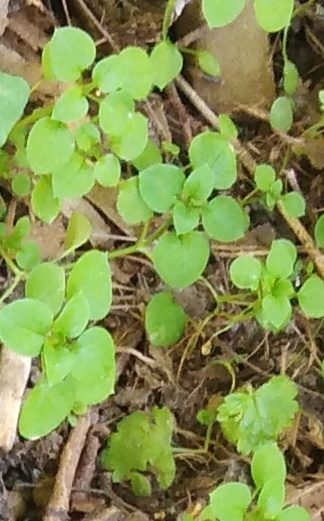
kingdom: Plantae
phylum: Tracheophyta
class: Magnoliopsida
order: Caryophyllales
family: Caryophyllaceae
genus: Stellaria
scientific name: Stellaria
